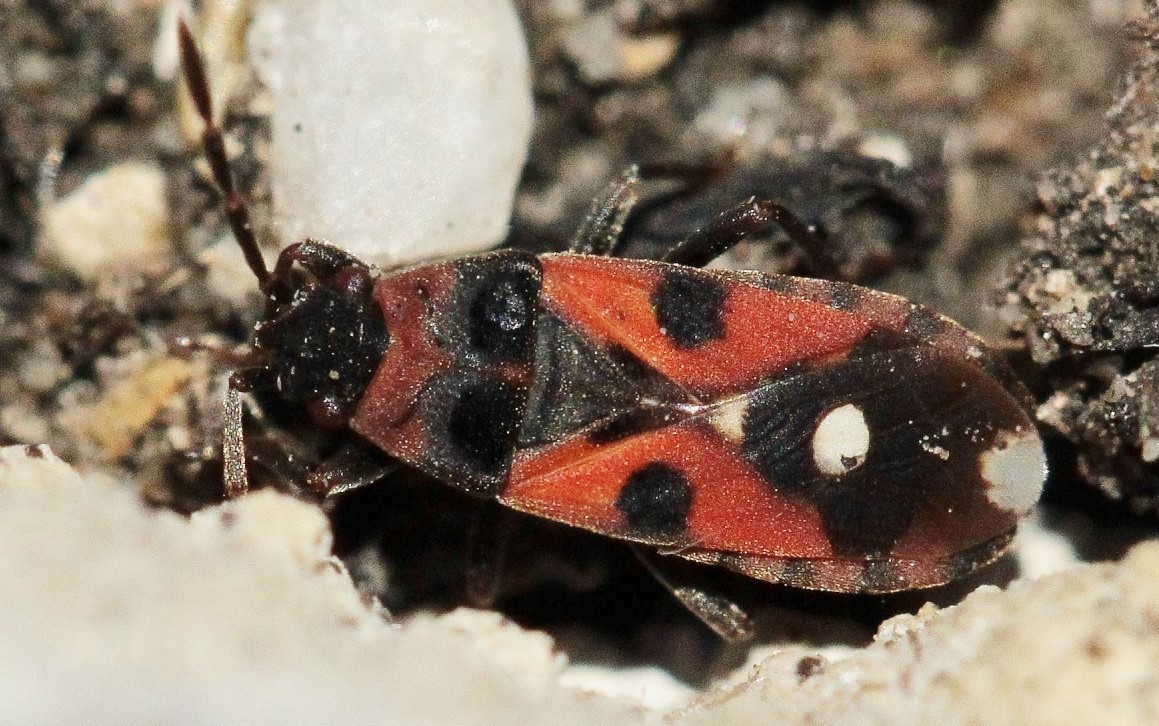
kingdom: Animalia
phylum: Arthropoda
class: Insecta
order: Hemiptera
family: Lygaeidae
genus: Horvathiolus
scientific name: Horvathiolus superbus
